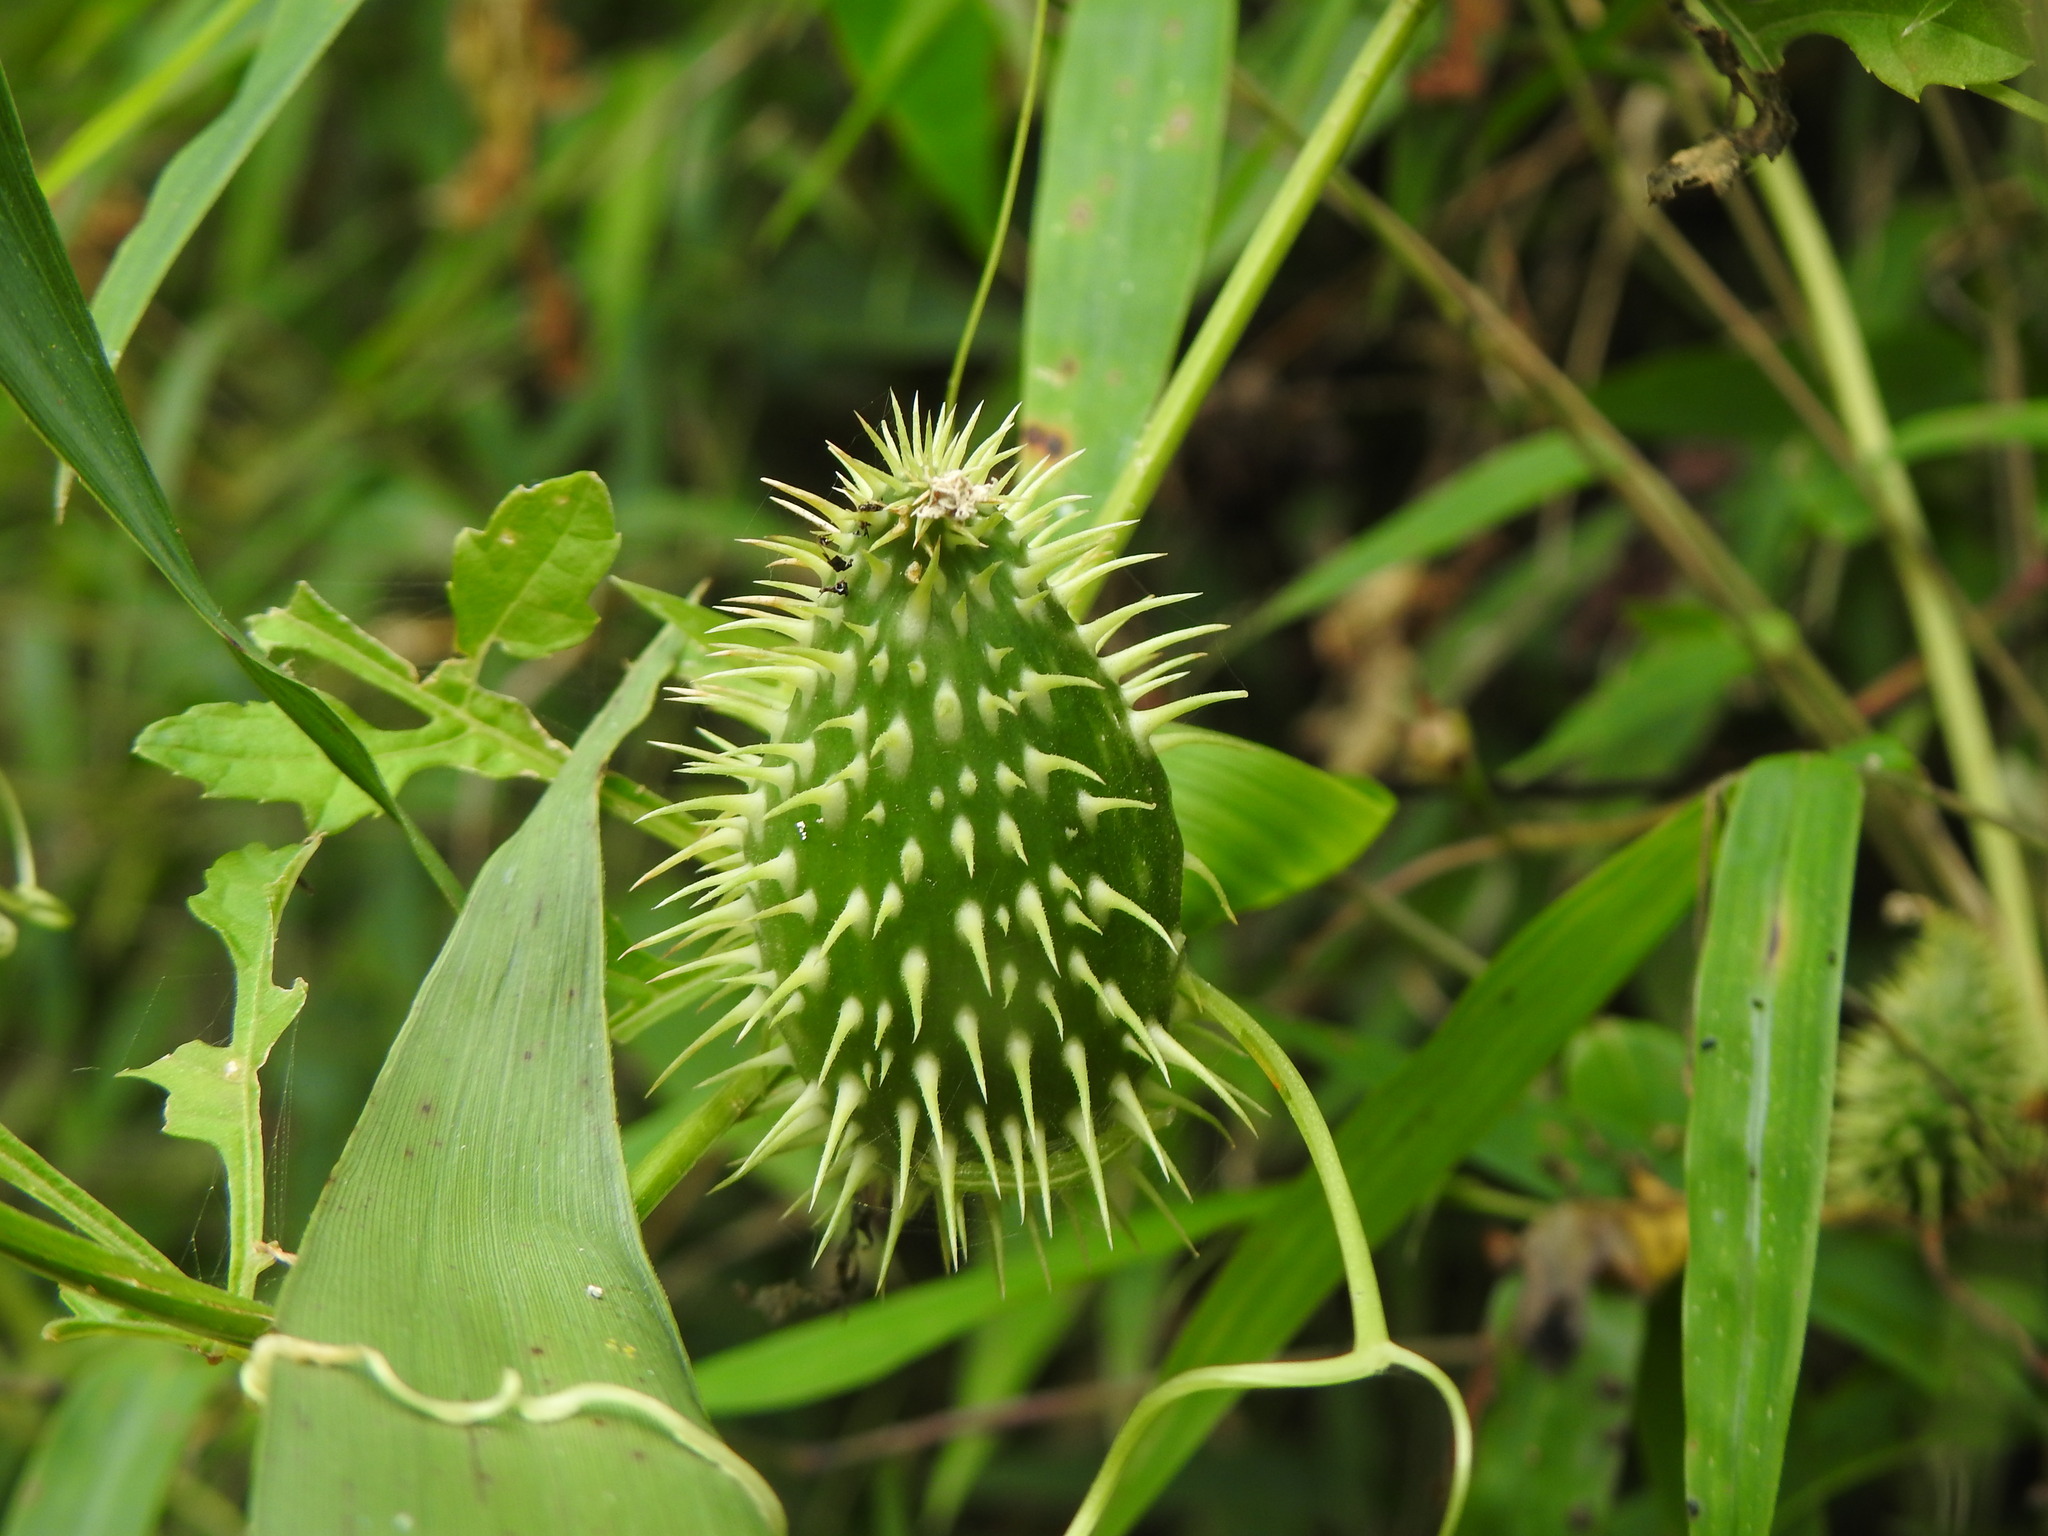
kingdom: Plantae
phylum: Tracheophyta
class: Magnoliopsida
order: Cucurbitales
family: Cucurbitaceae
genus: Cyclanthera
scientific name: Cyclanthera quinquelobata
